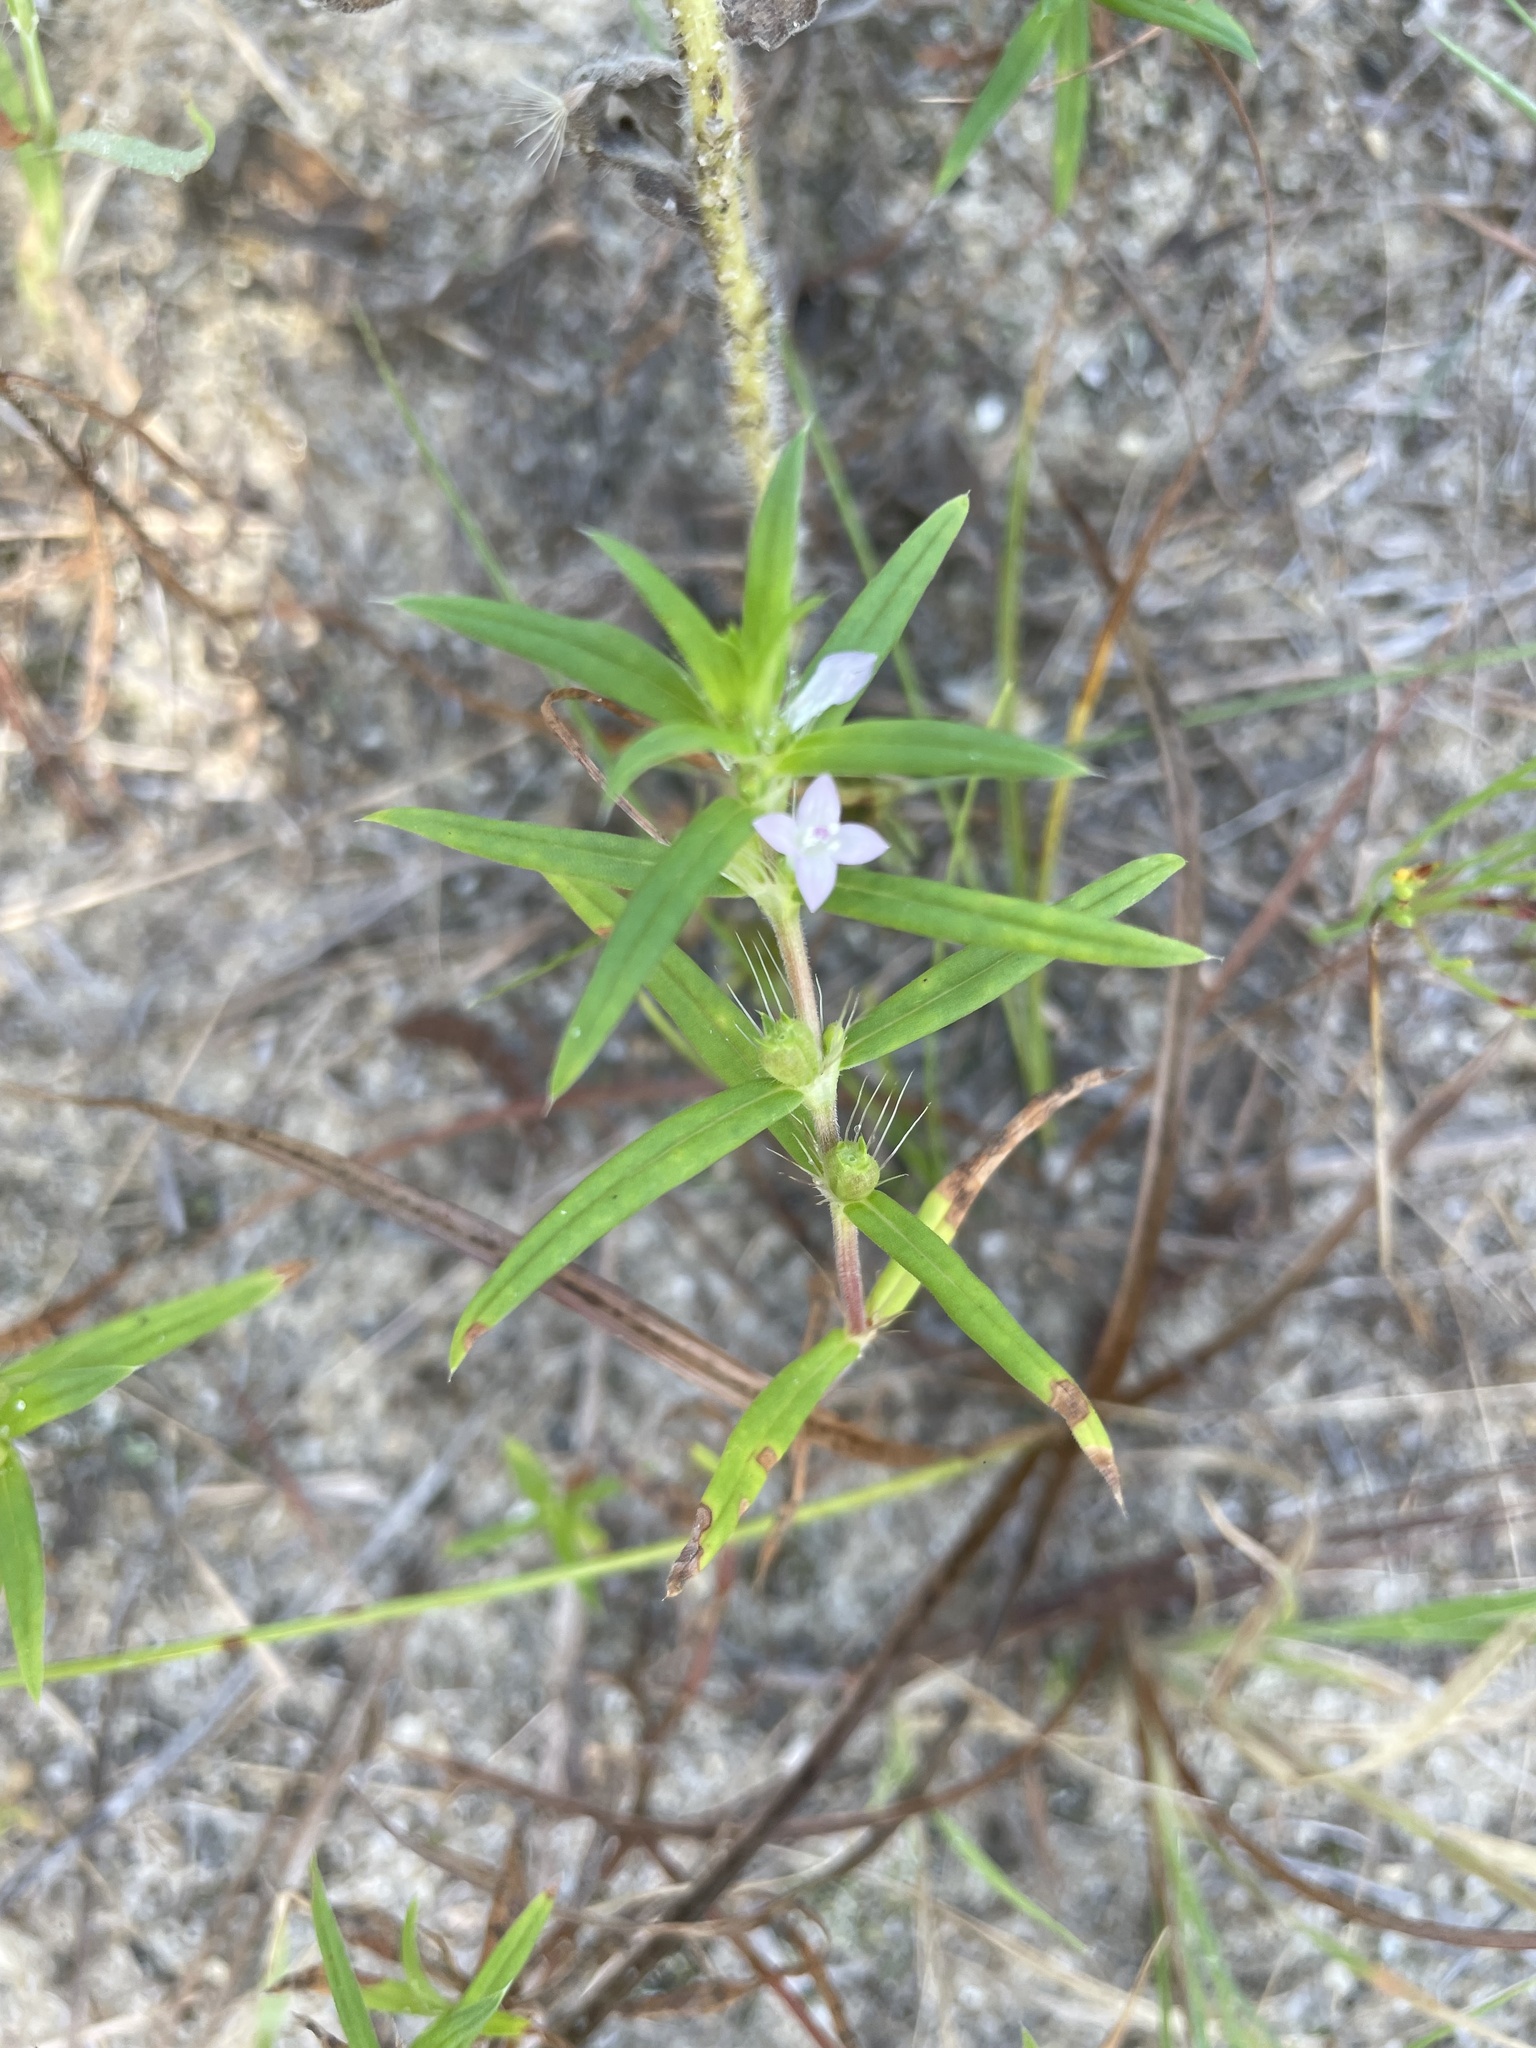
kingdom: Plantae
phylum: Tracheophyta
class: Magnoliopsida
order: Gentianales
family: Rubiaceae
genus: Hexasepalum
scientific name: Hexasepalum teres
